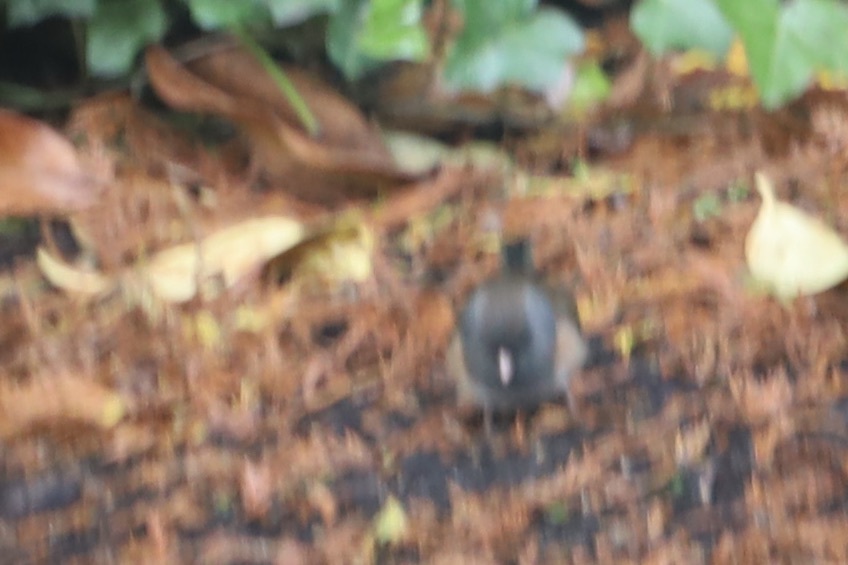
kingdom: Animalia
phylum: Chordata
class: Aves
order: Passeriformes
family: Passerellidae
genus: Junco
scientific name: Junco hyemalis
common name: Dark-eyed junco
